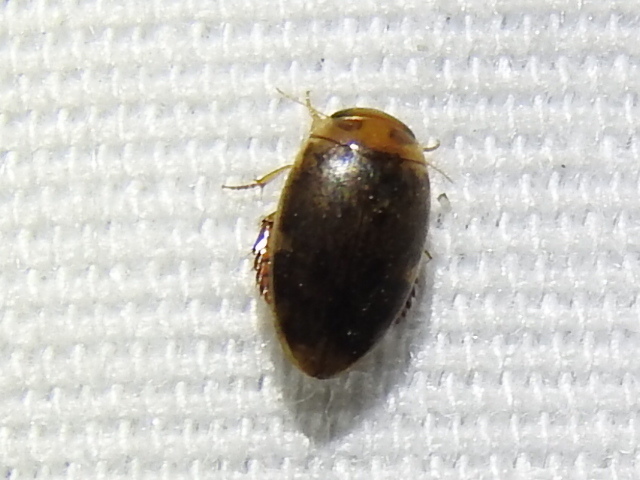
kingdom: Animalia
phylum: Arthropoda
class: Insecta
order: Coleoptera
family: Dytiscidae
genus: Laccophilus
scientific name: Laccophilus proximus
